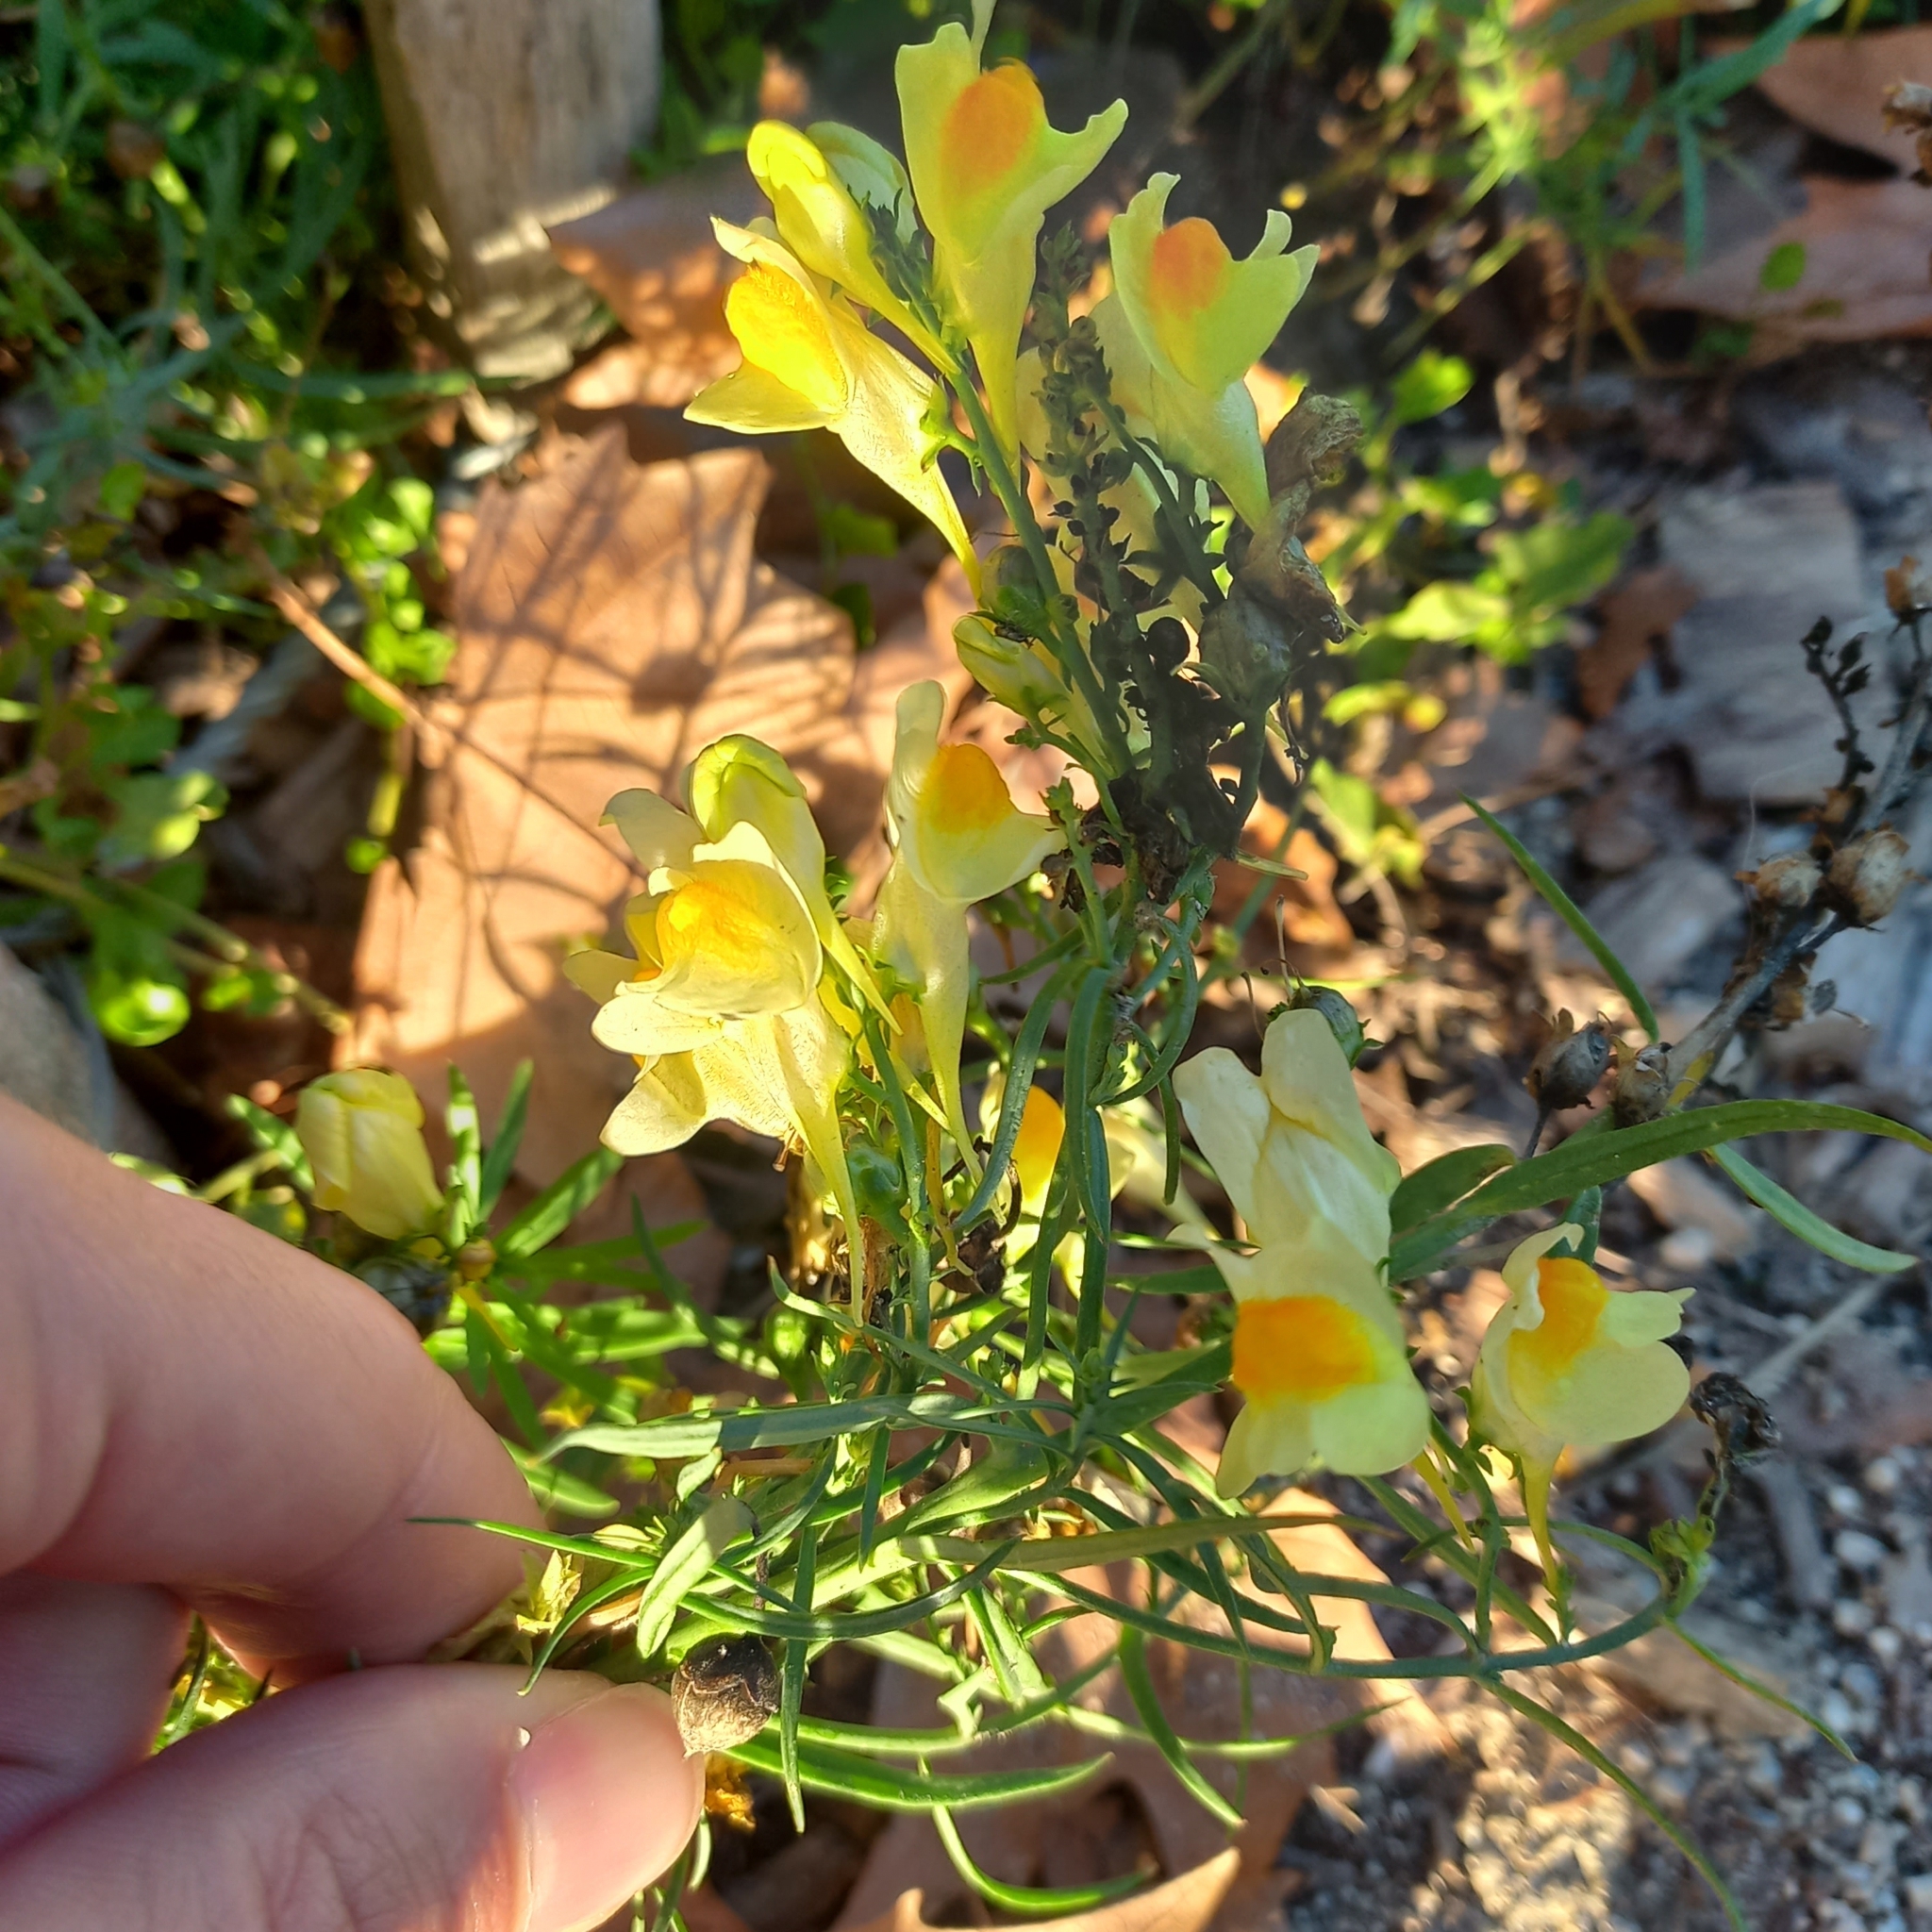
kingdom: Plantae
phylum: Tracheophyta
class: Magnoliopsida
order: Lamiales
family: Plantaginaceae
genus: Linaria
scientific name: Linaria vulgaris
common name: Butter and eggs
